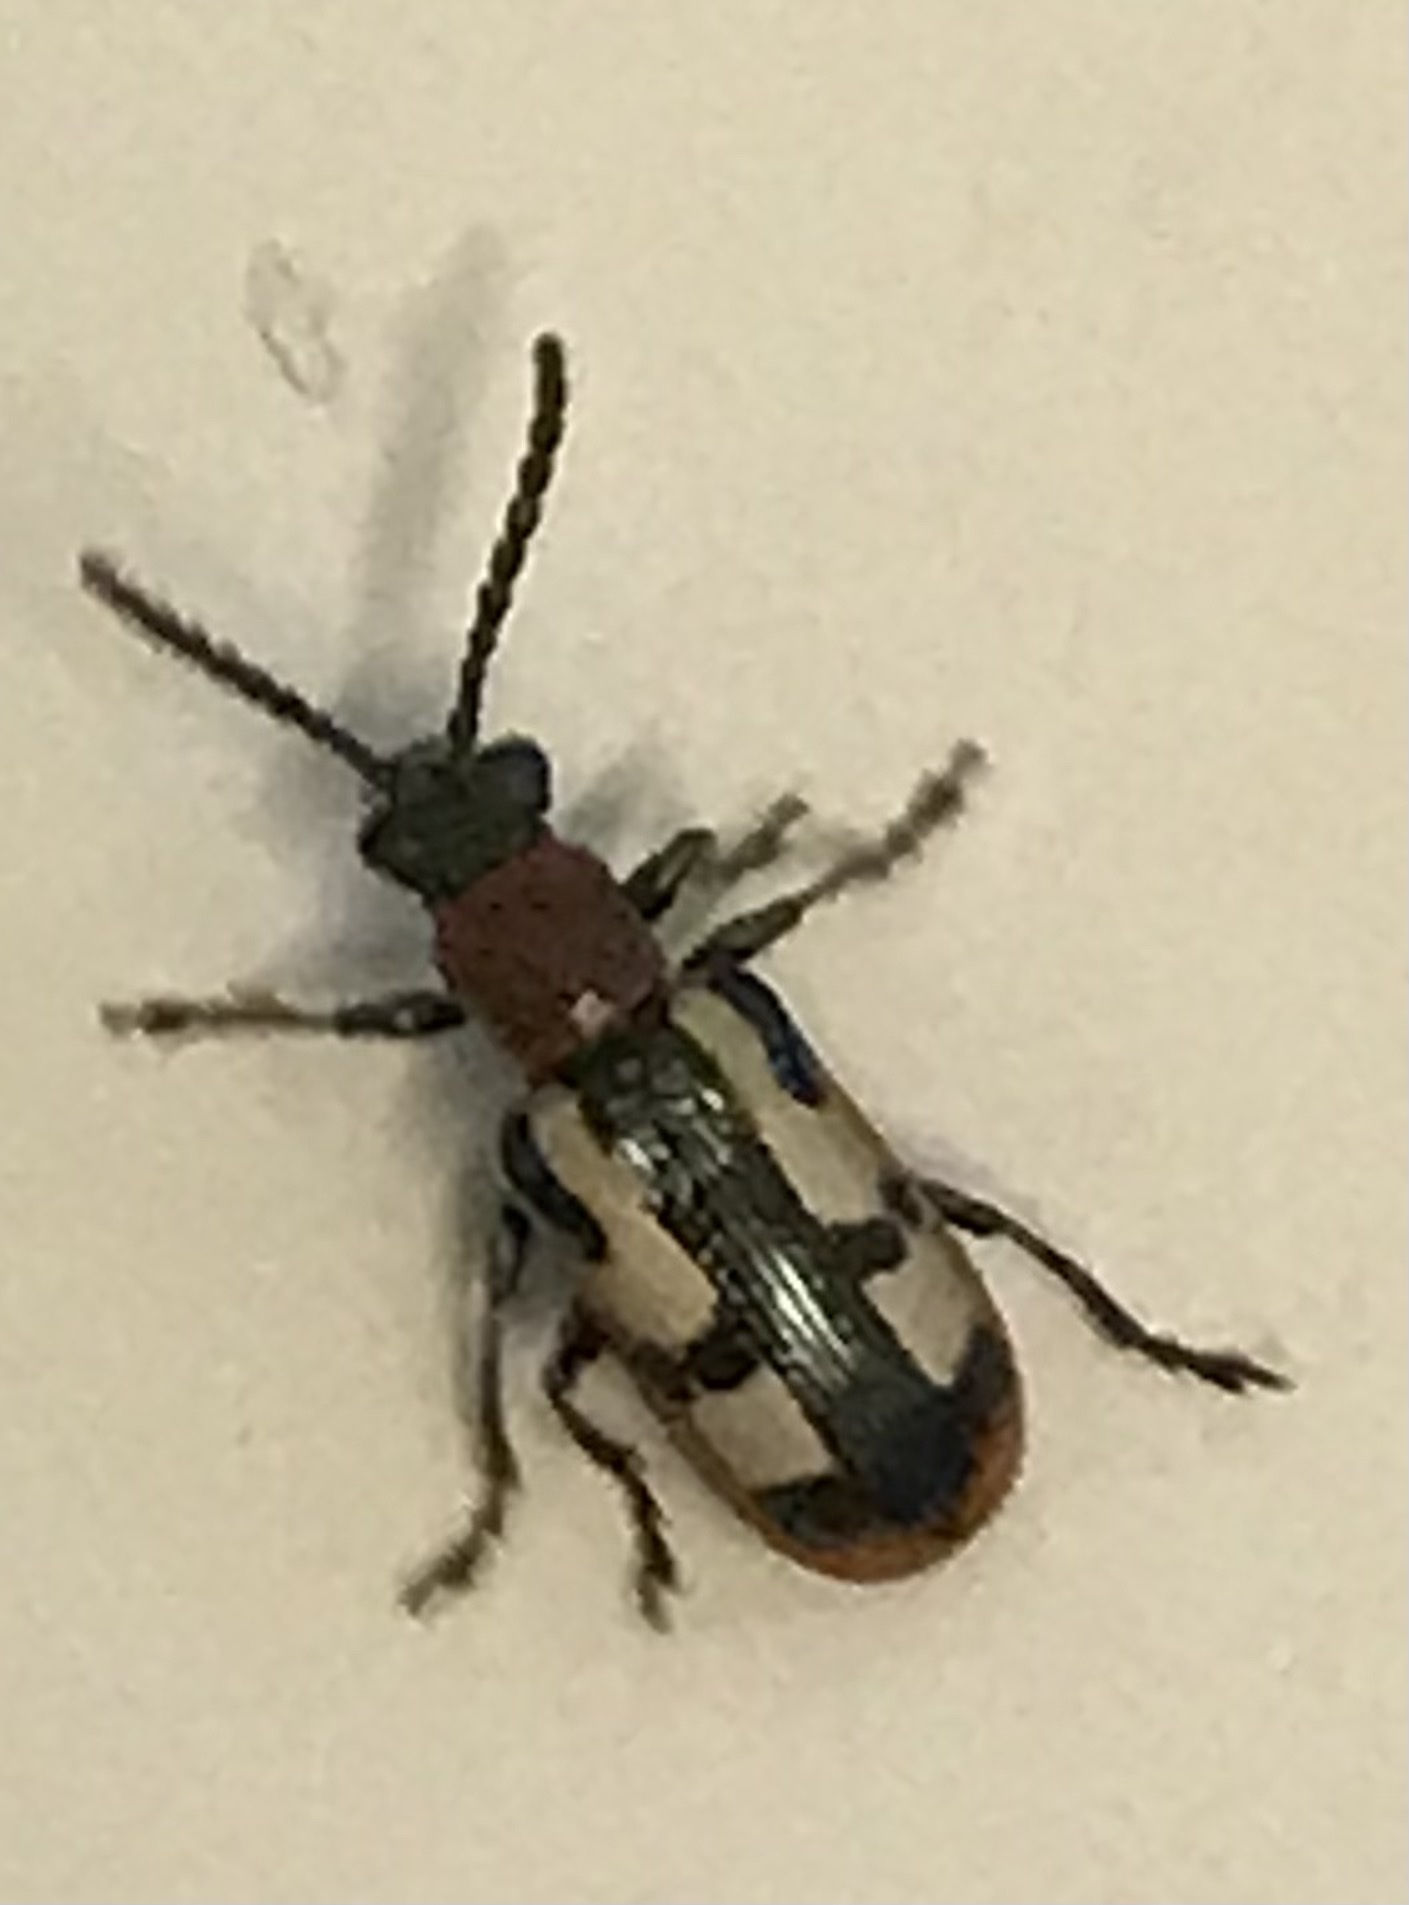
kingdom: Animalia
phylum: Arthropoda
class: Insecta
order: Coleoptera
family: Chrysomelidae
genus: Crioceris
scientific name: Crioceris asparagi
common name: Asparagus beetle
